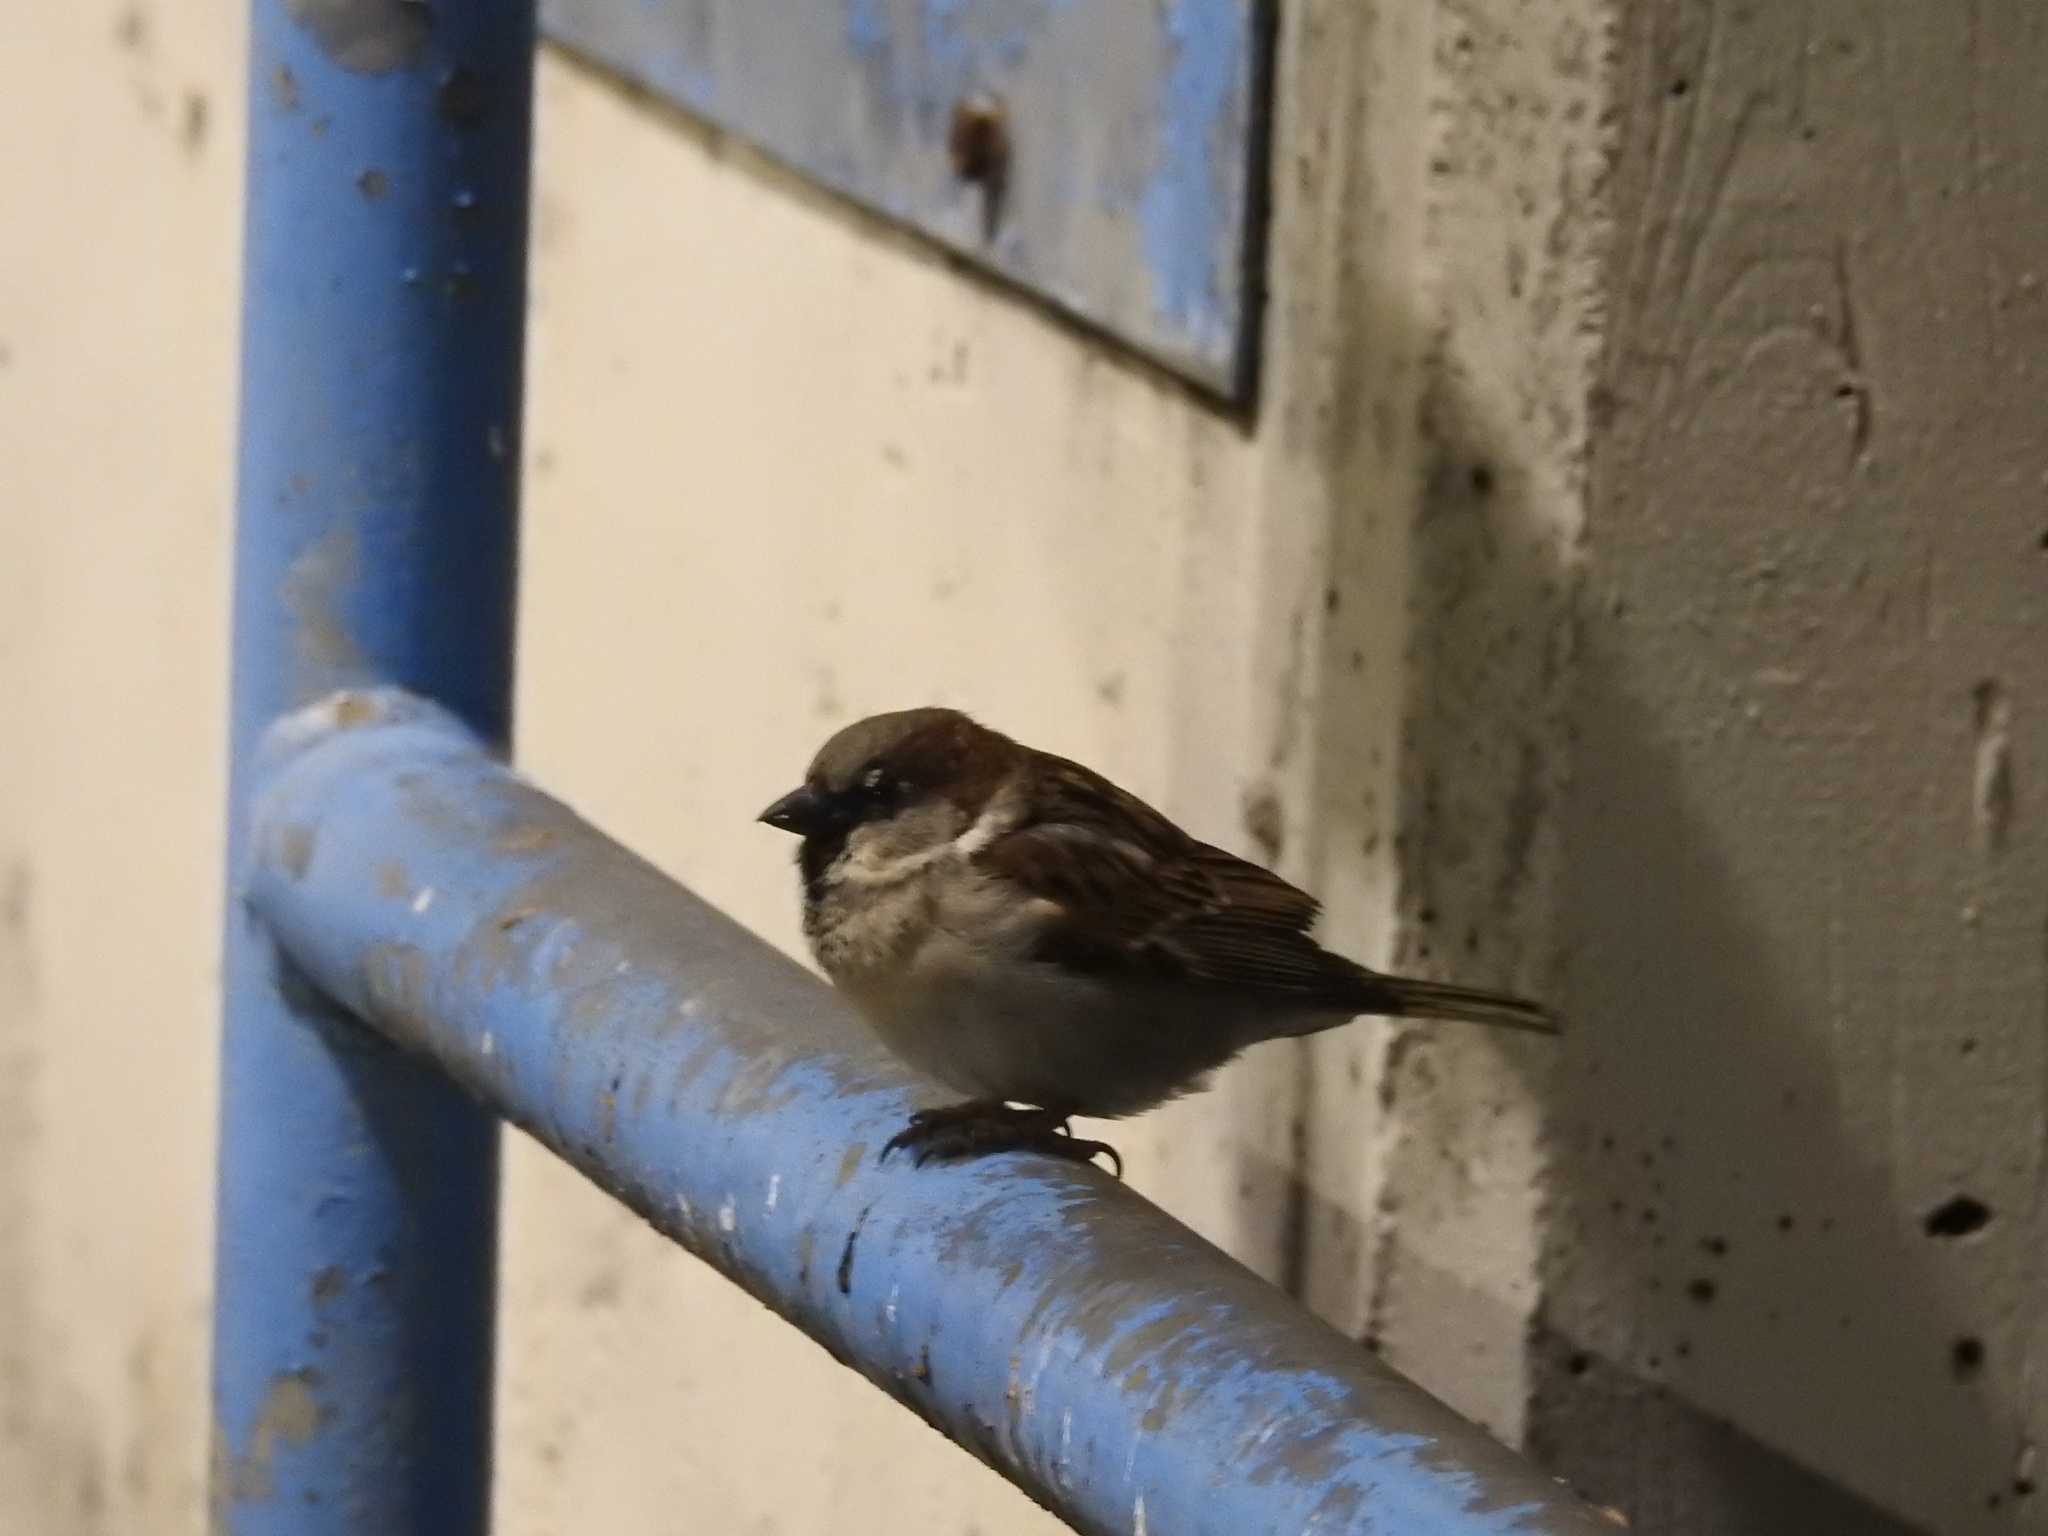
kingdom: Animalia
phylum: Chordata
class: Aves
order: Passeriformes
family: Passeridae
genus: Passer
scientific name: Passer domesticus
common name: House sparrow
